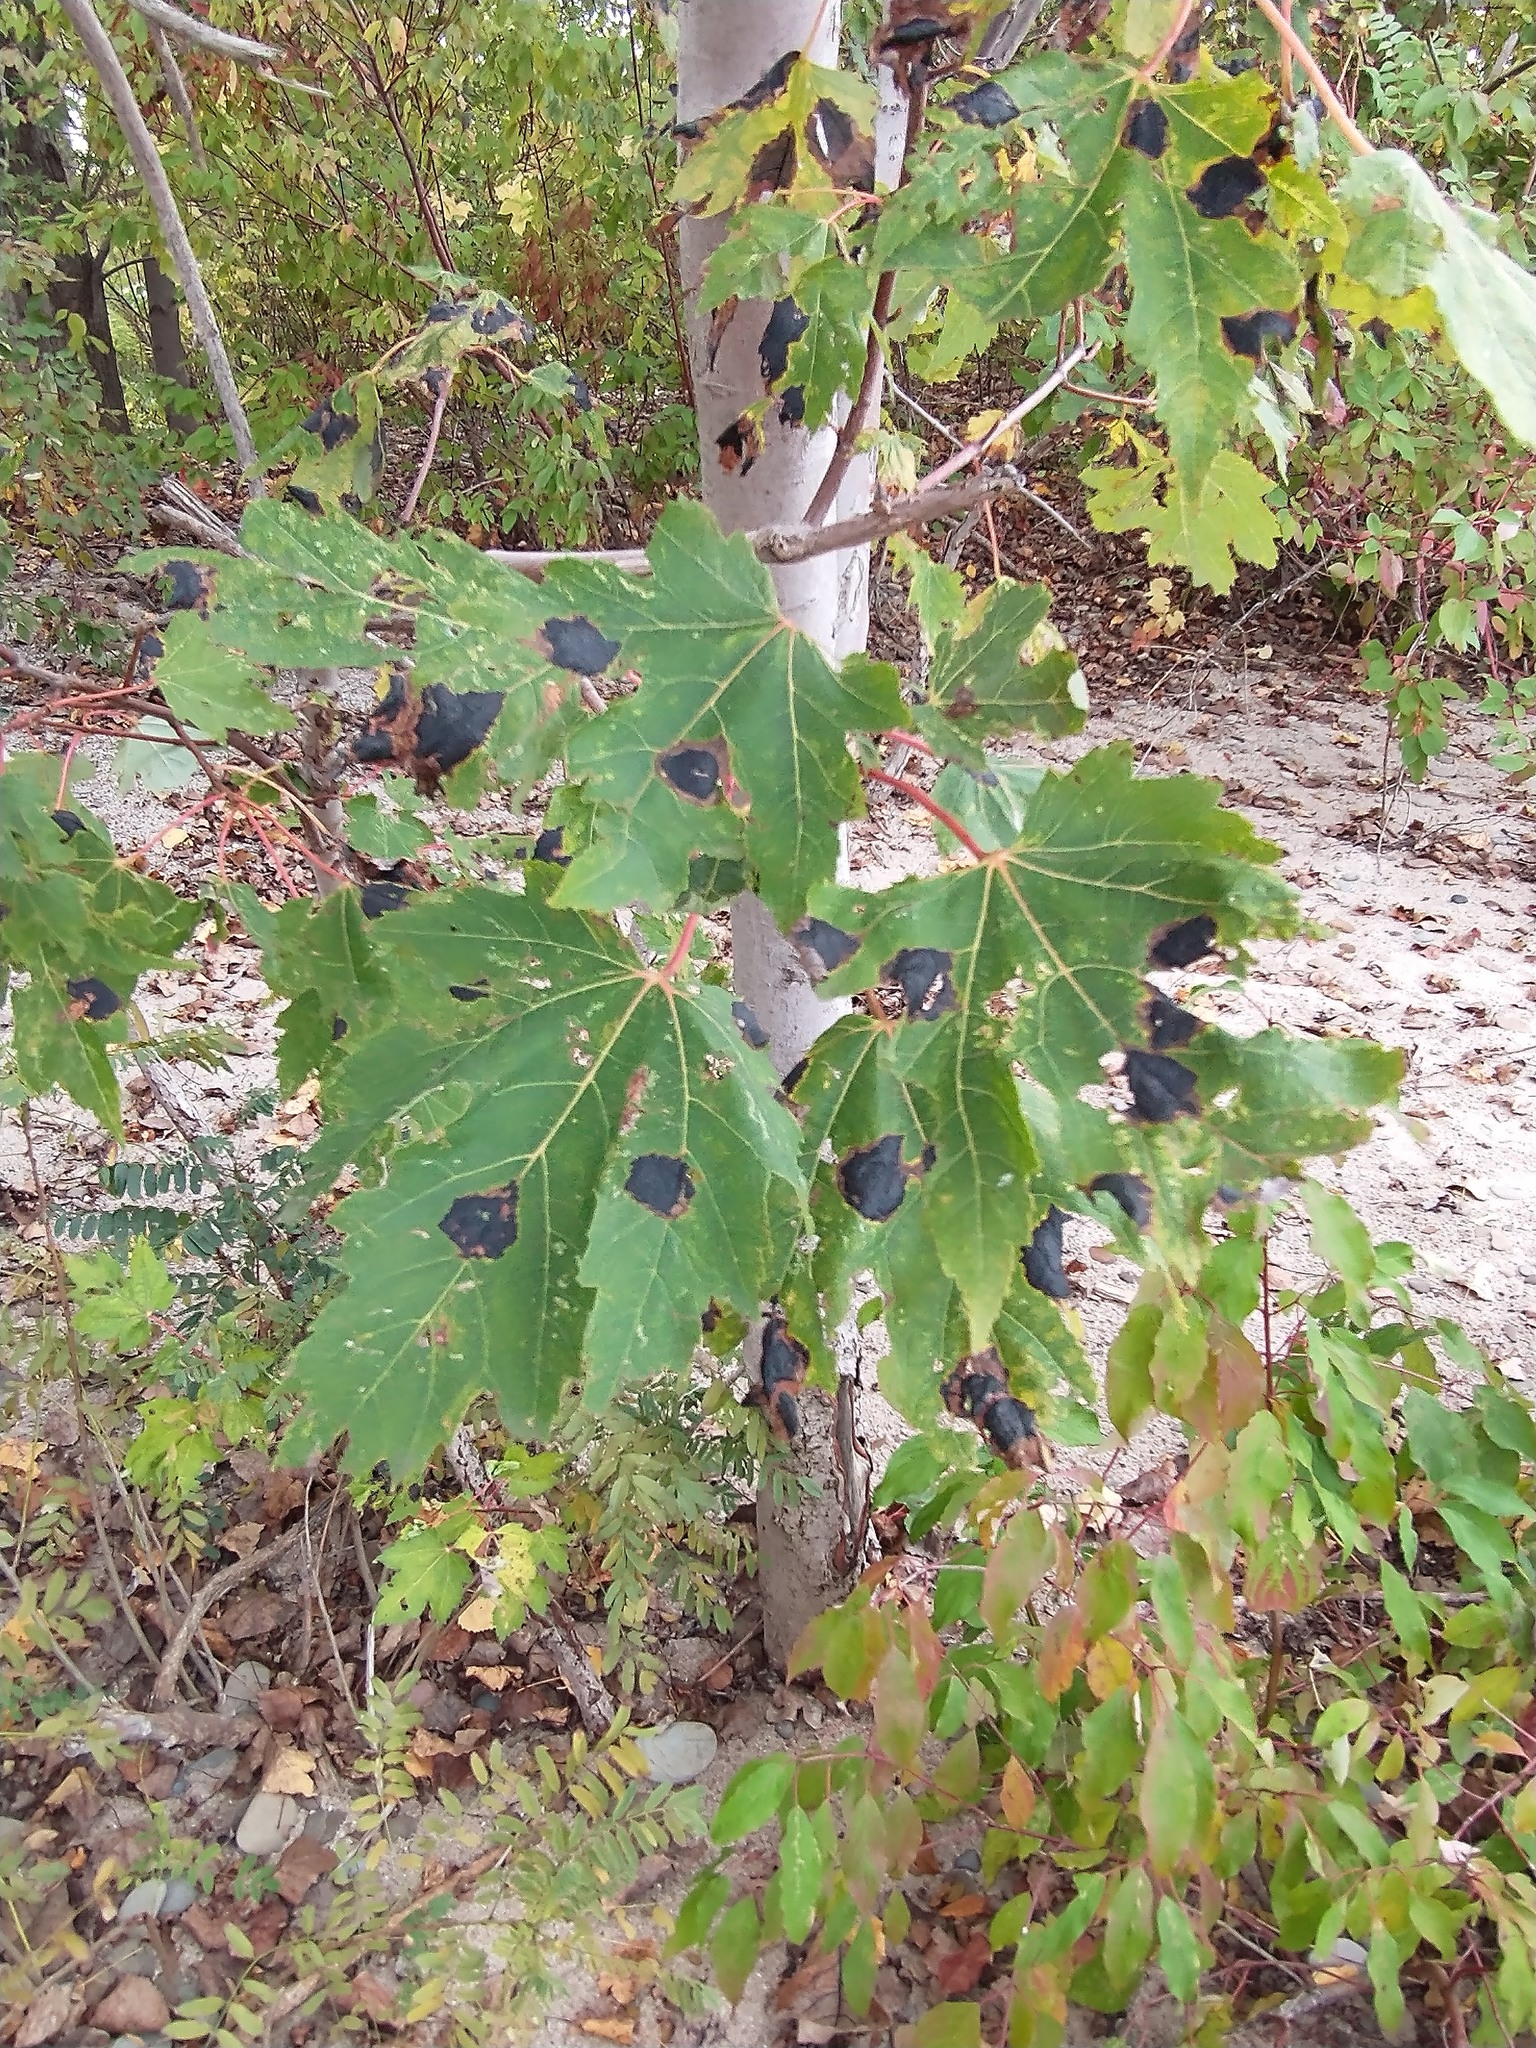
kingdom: Plantae
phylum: Tracheophyta
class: Magnoliopsida
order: Sapindales
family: Sapindaceae
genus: Acer
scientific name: Acer saccharinum
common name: Silver maple
